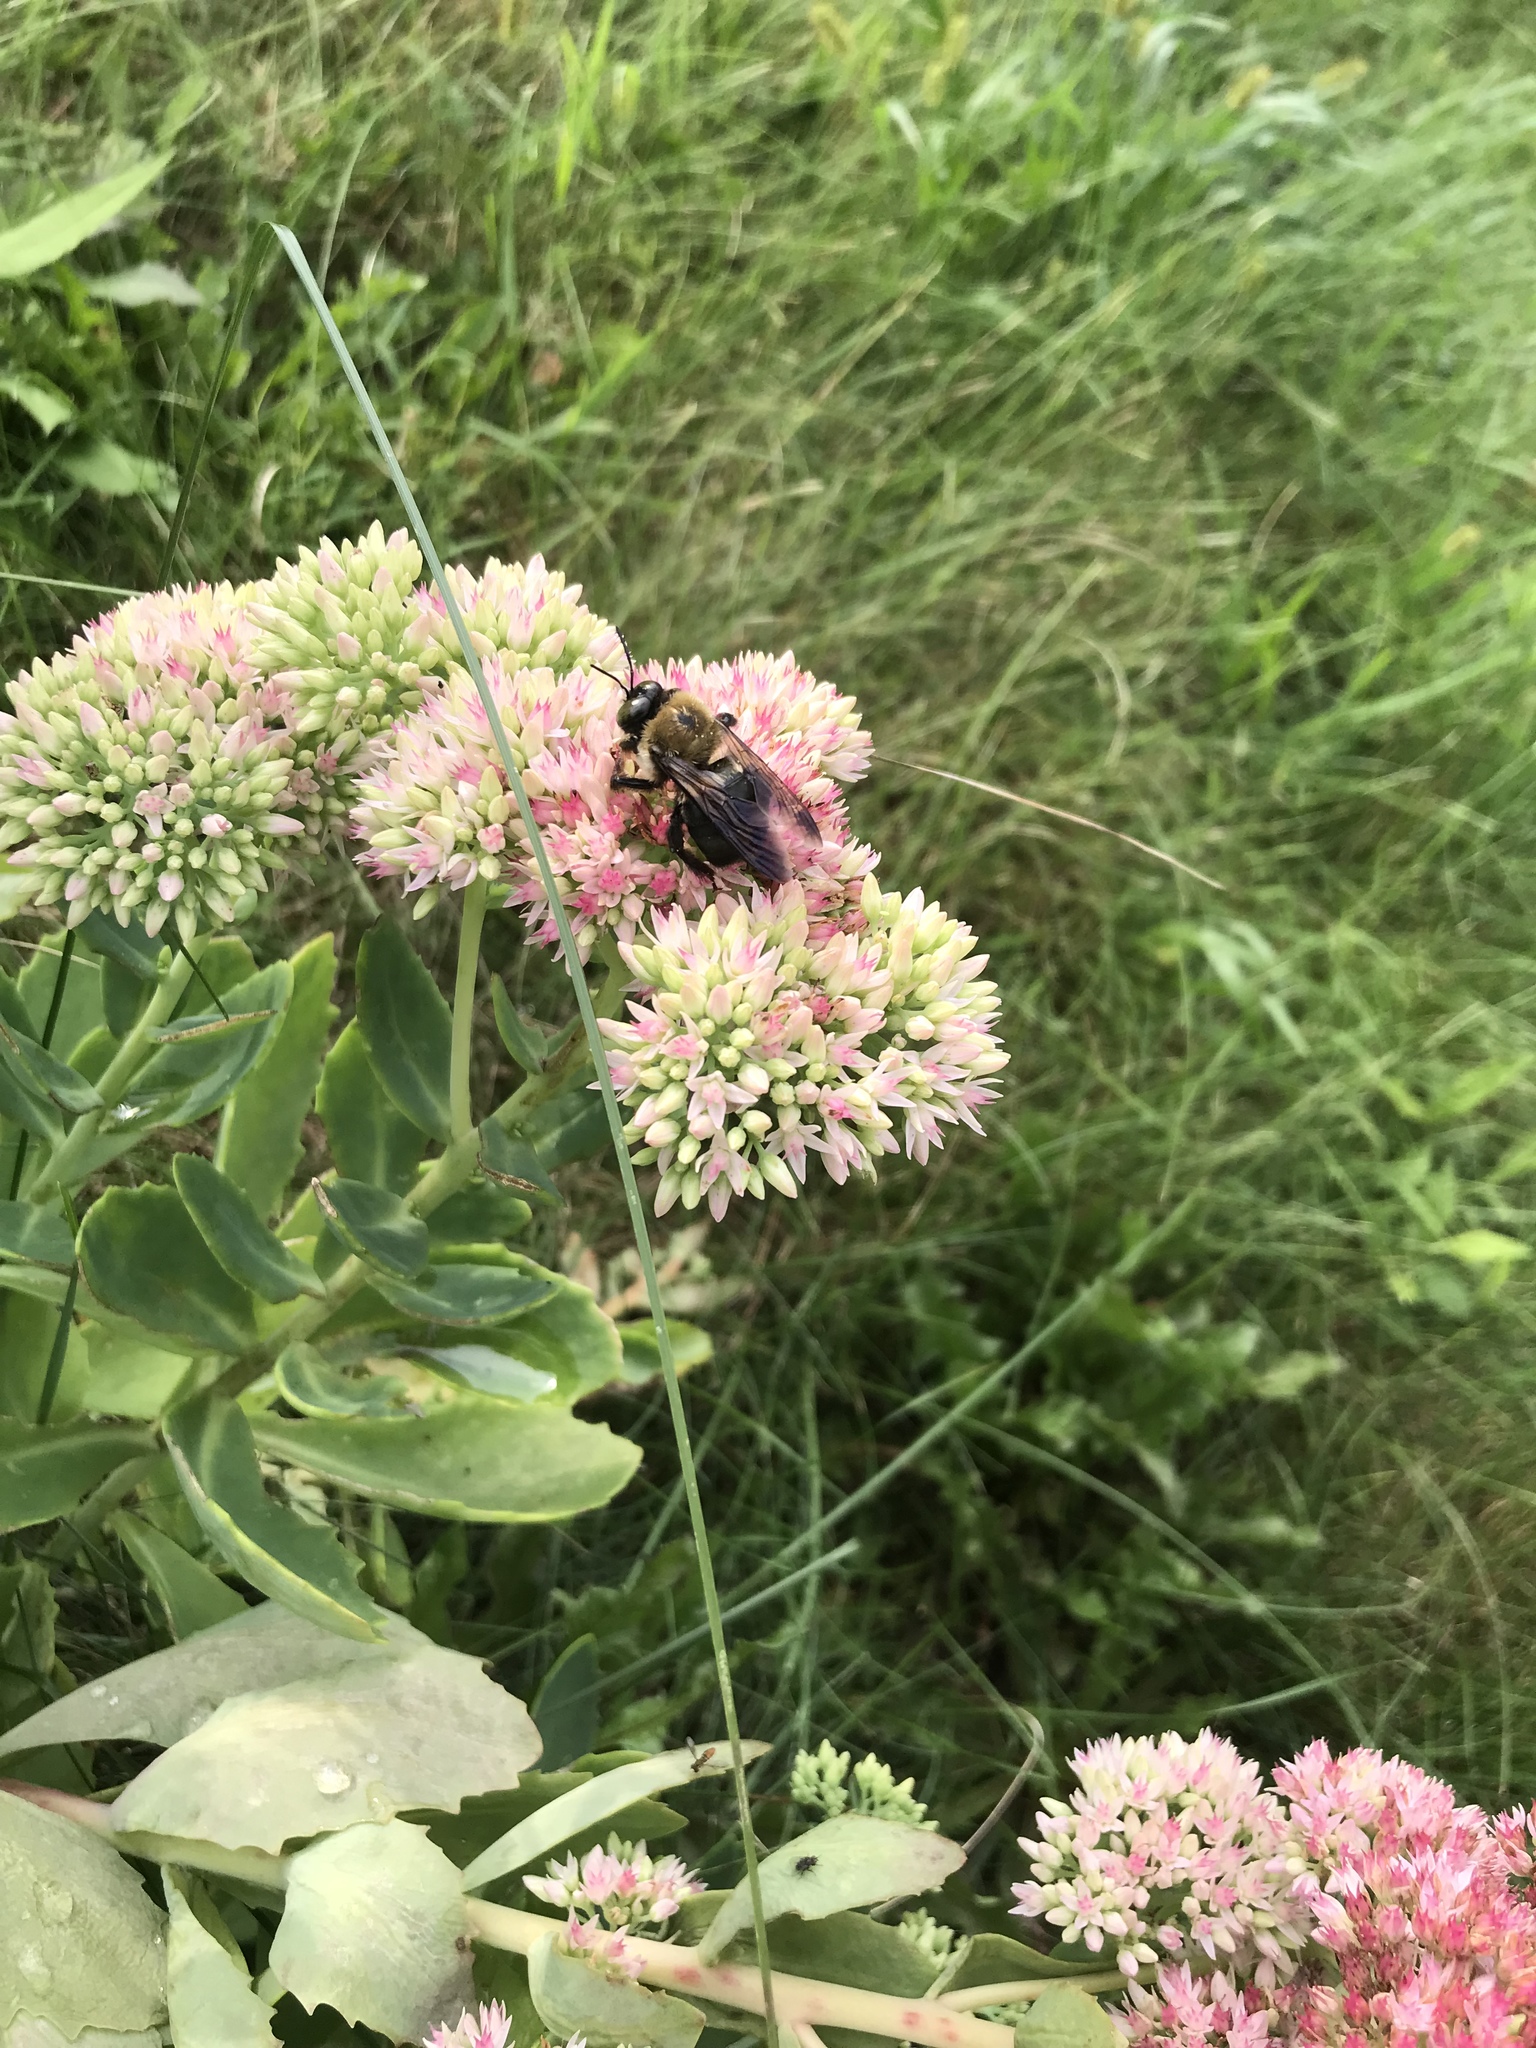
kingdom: Animalia
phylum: Arthropoda
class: Insecta
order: Hymenoptera
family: Apidae
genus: Xylocopa
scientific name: Xylocopa virginica
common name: Carpenter bee
